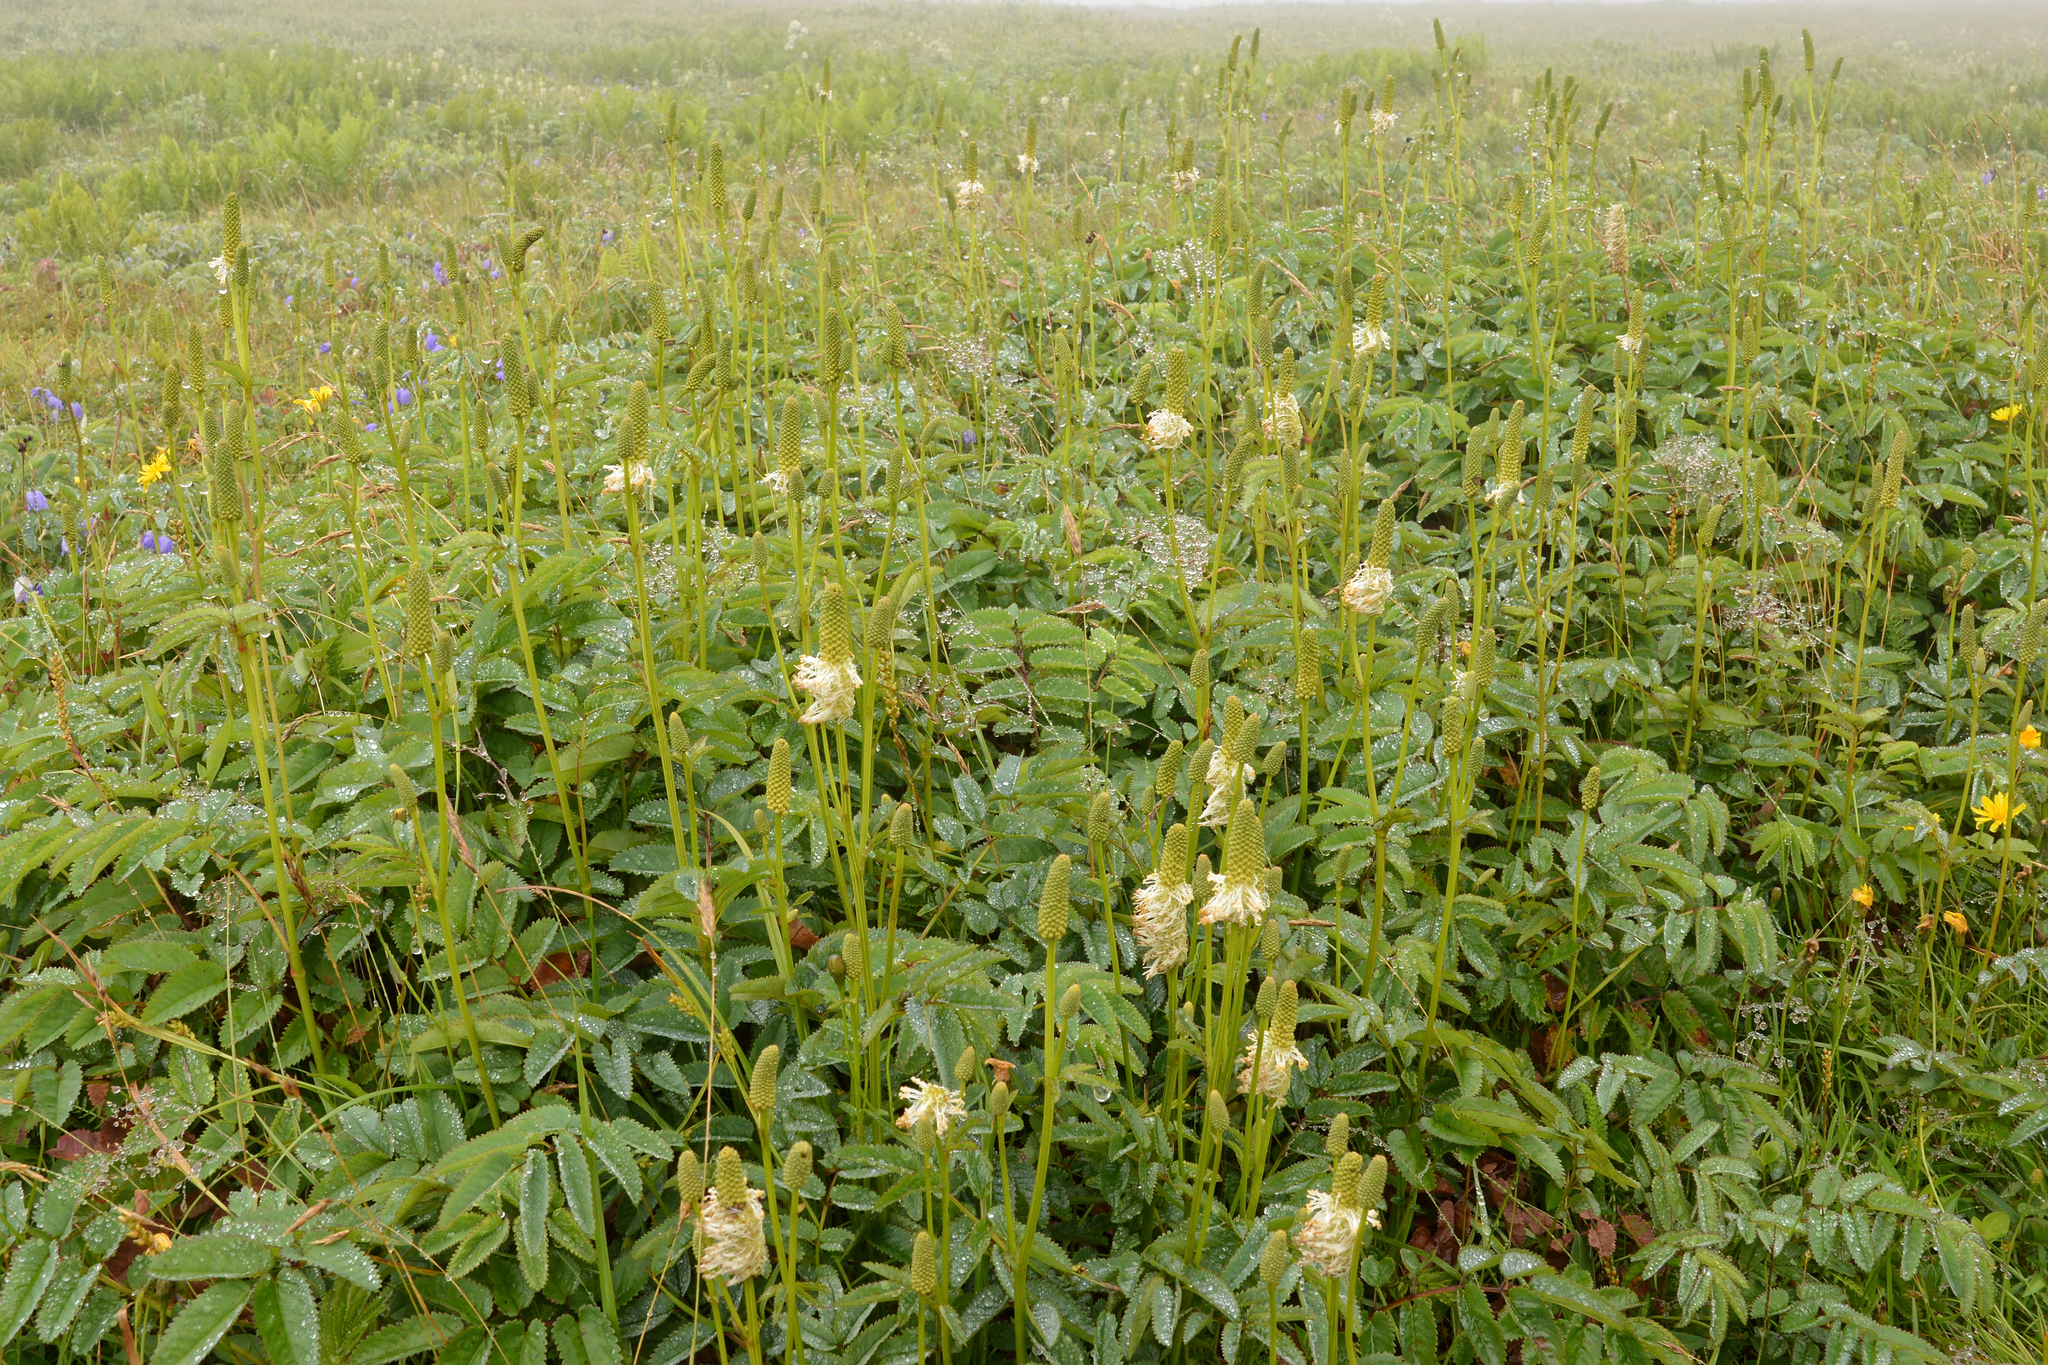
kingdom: Plantae
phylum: Tracheophyta
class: Magnoliopsida
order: Rosales
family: Rosaceae
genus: Sanguisorba
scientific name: Sanguisorba canadensis
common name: White burnet
